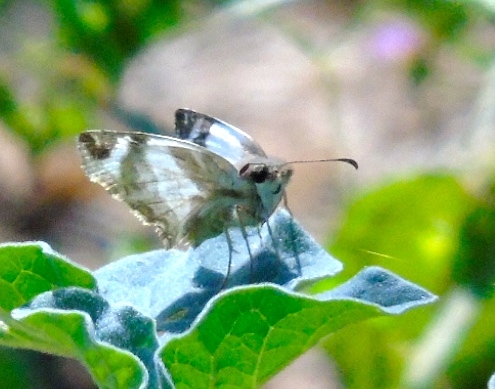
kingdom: Animalia
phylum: Arthropoda
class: Insecta
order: Lepidoptera
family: Hesperiidae
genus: Heliopetes
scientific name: Heliopetes laviana
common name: Laviana white-skipper
